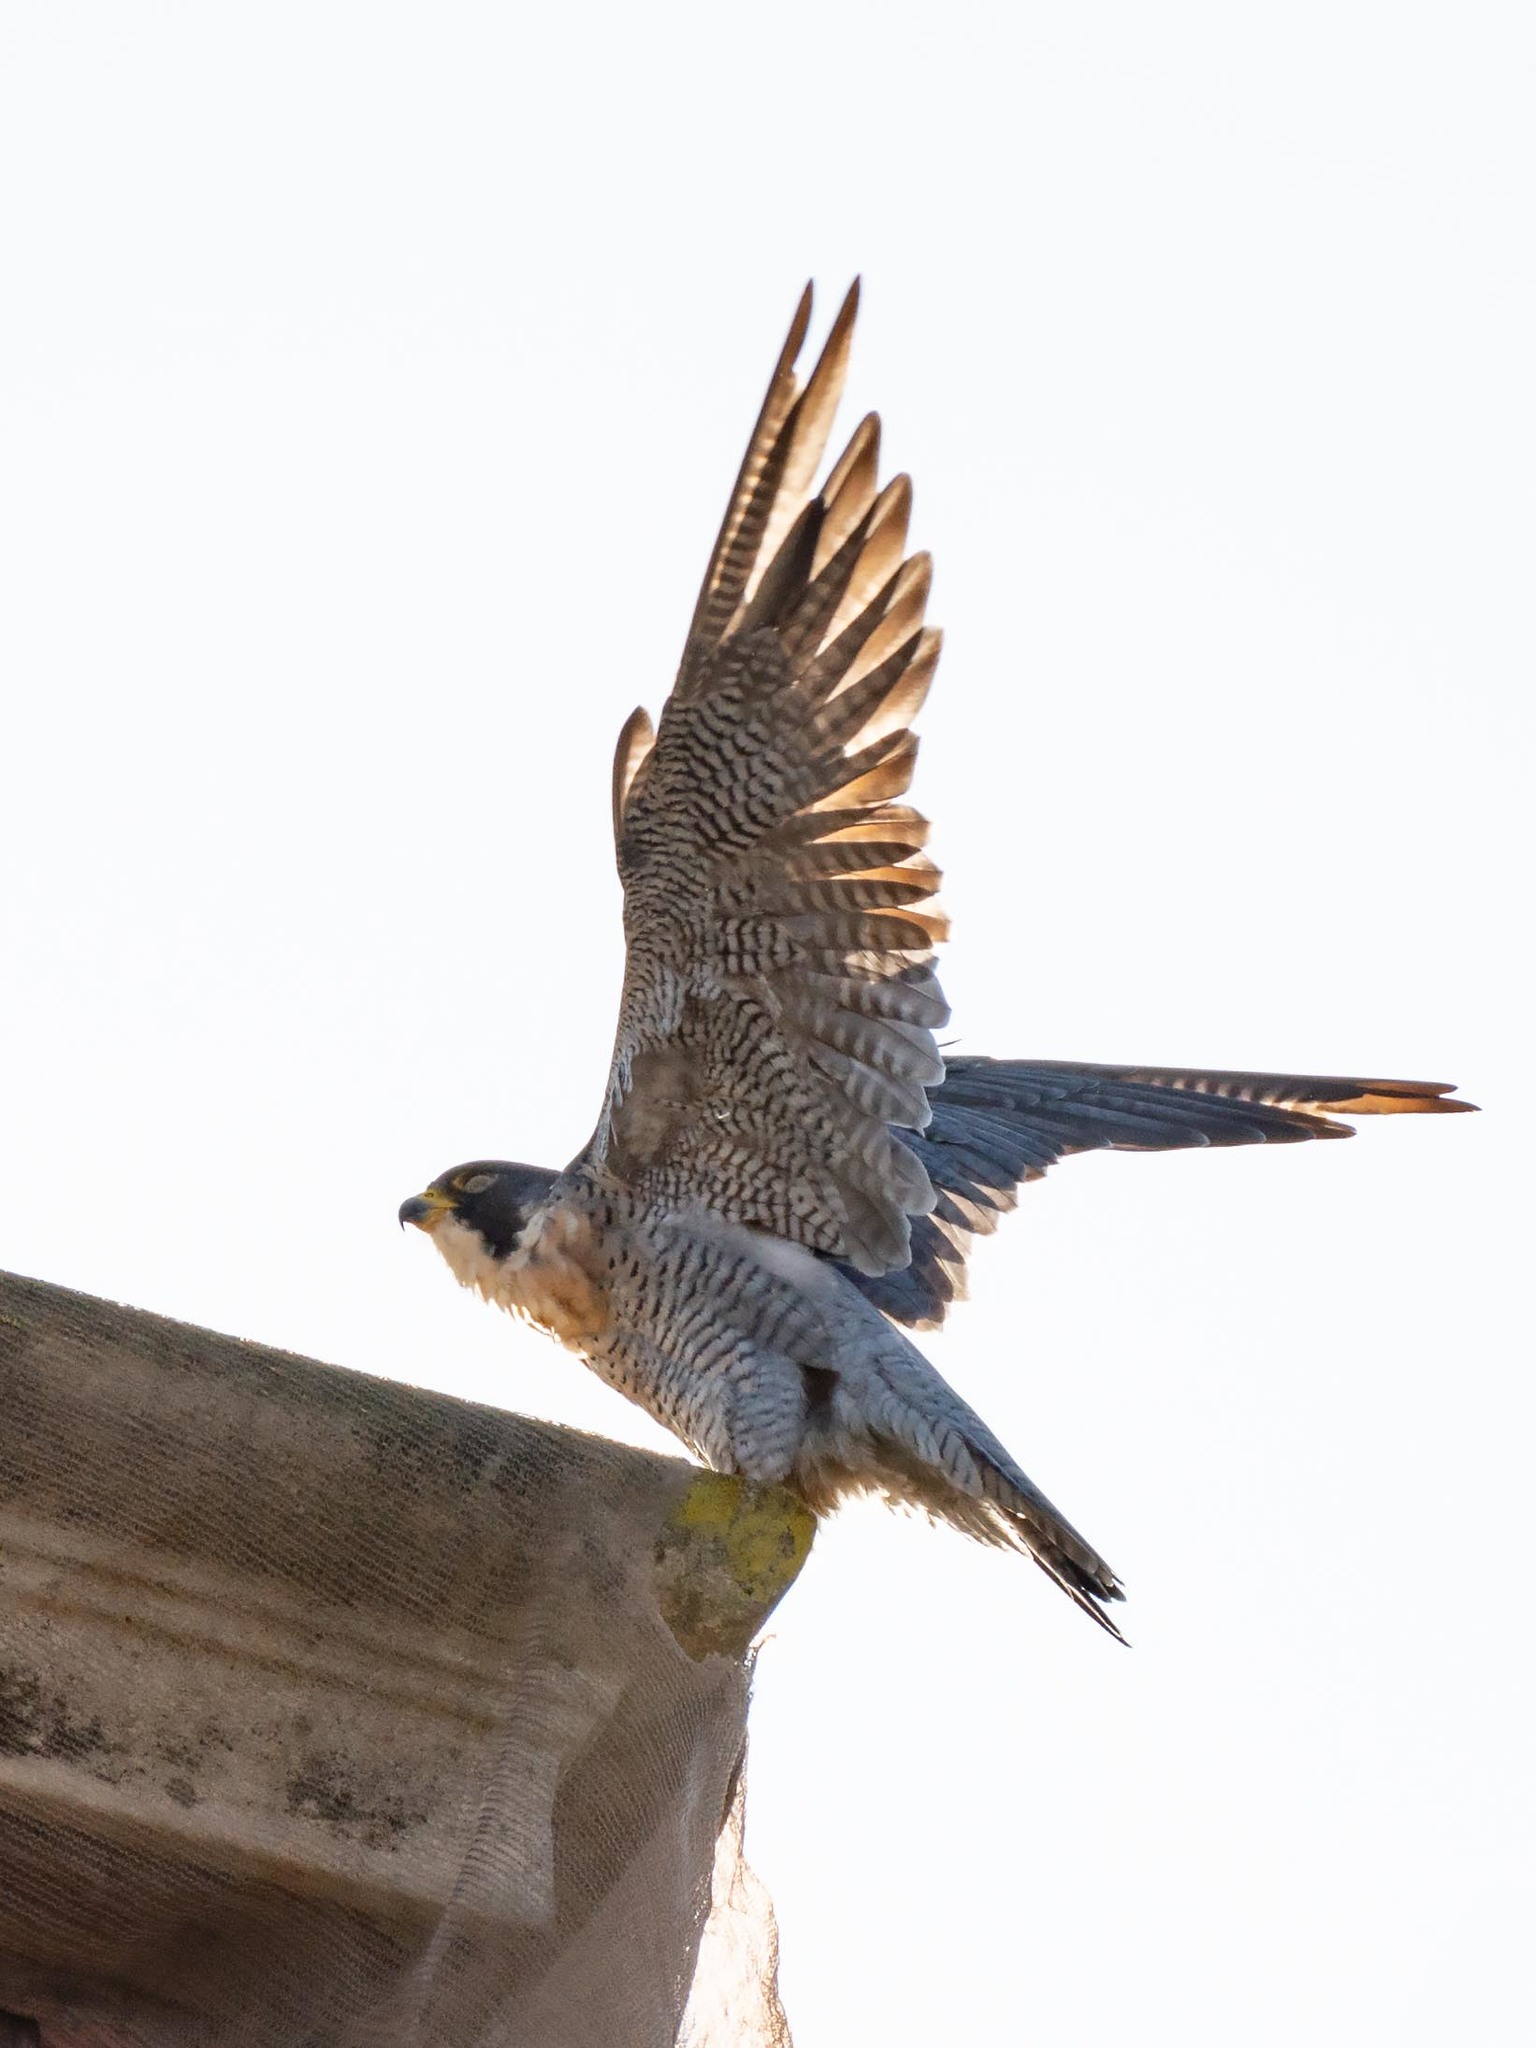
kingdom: Animalia
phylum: Chordata
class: Aves
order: Falconiformes
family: Falconidae
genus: Falco
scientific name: Falco peregrinus
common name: Peregrine falcon
